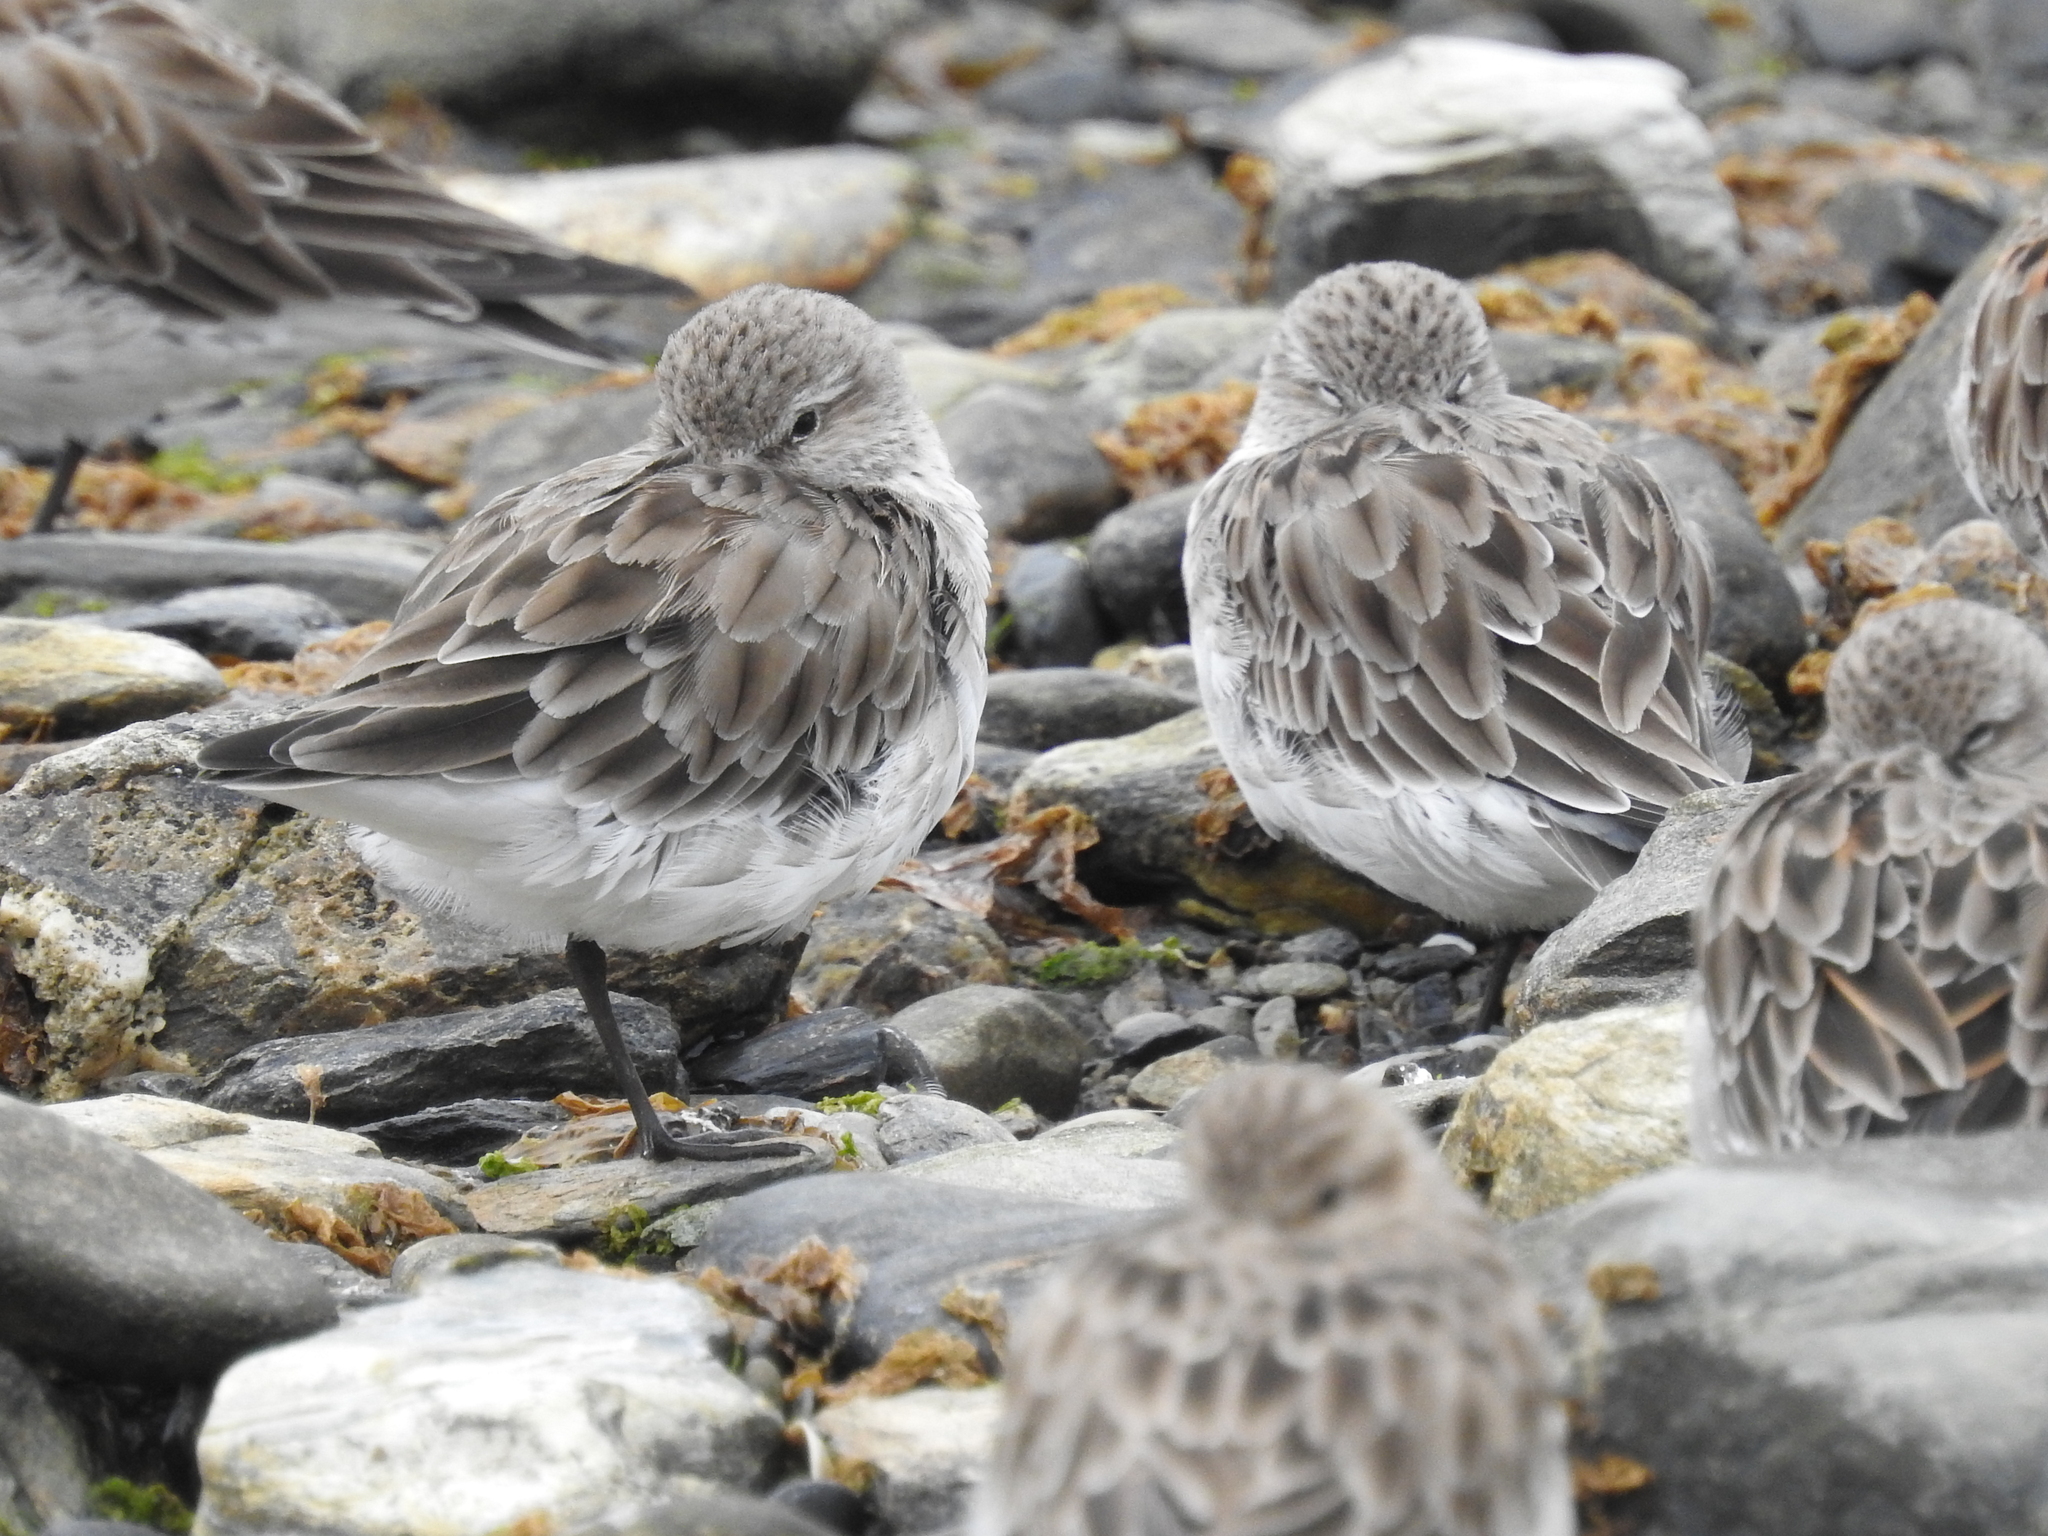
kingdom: Animalia
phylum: Chordata
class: Aves
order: Charadriiformes
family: Scolopacidae
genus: Calidris
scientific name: Calidris fuscicollis
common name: White-rumped sandpiper
